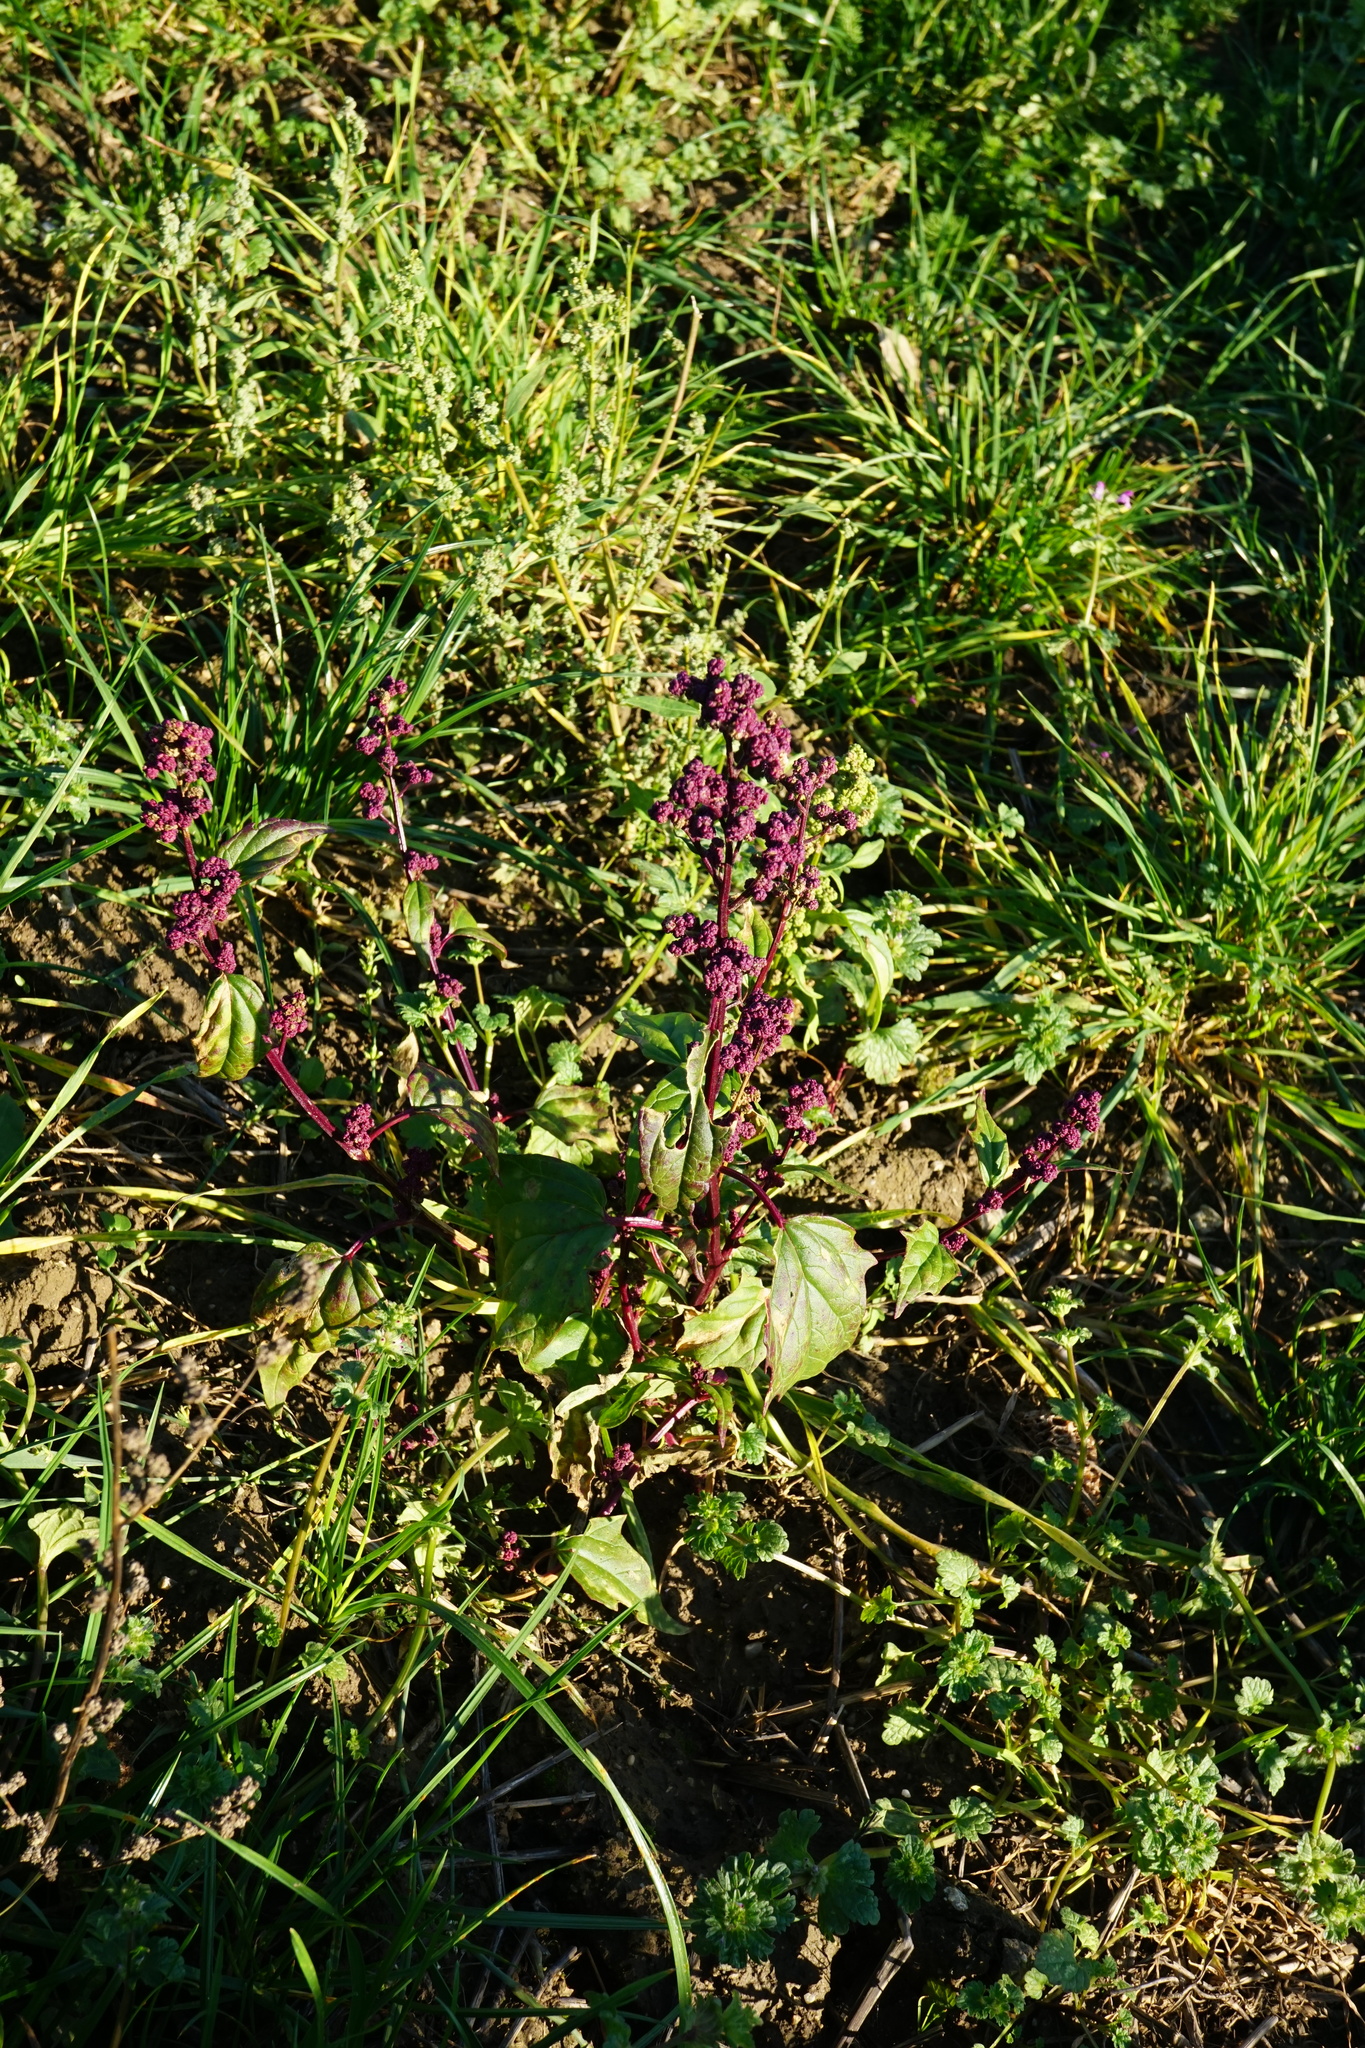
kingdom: Plantae
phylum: Tracheophyta
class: Magnoliopsida
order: Caryophyllales
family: Amaranthaceae
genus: Chenopodiastrum
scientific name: Chenopodiastrum hybridum
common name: Mapleleaf goosefoot
